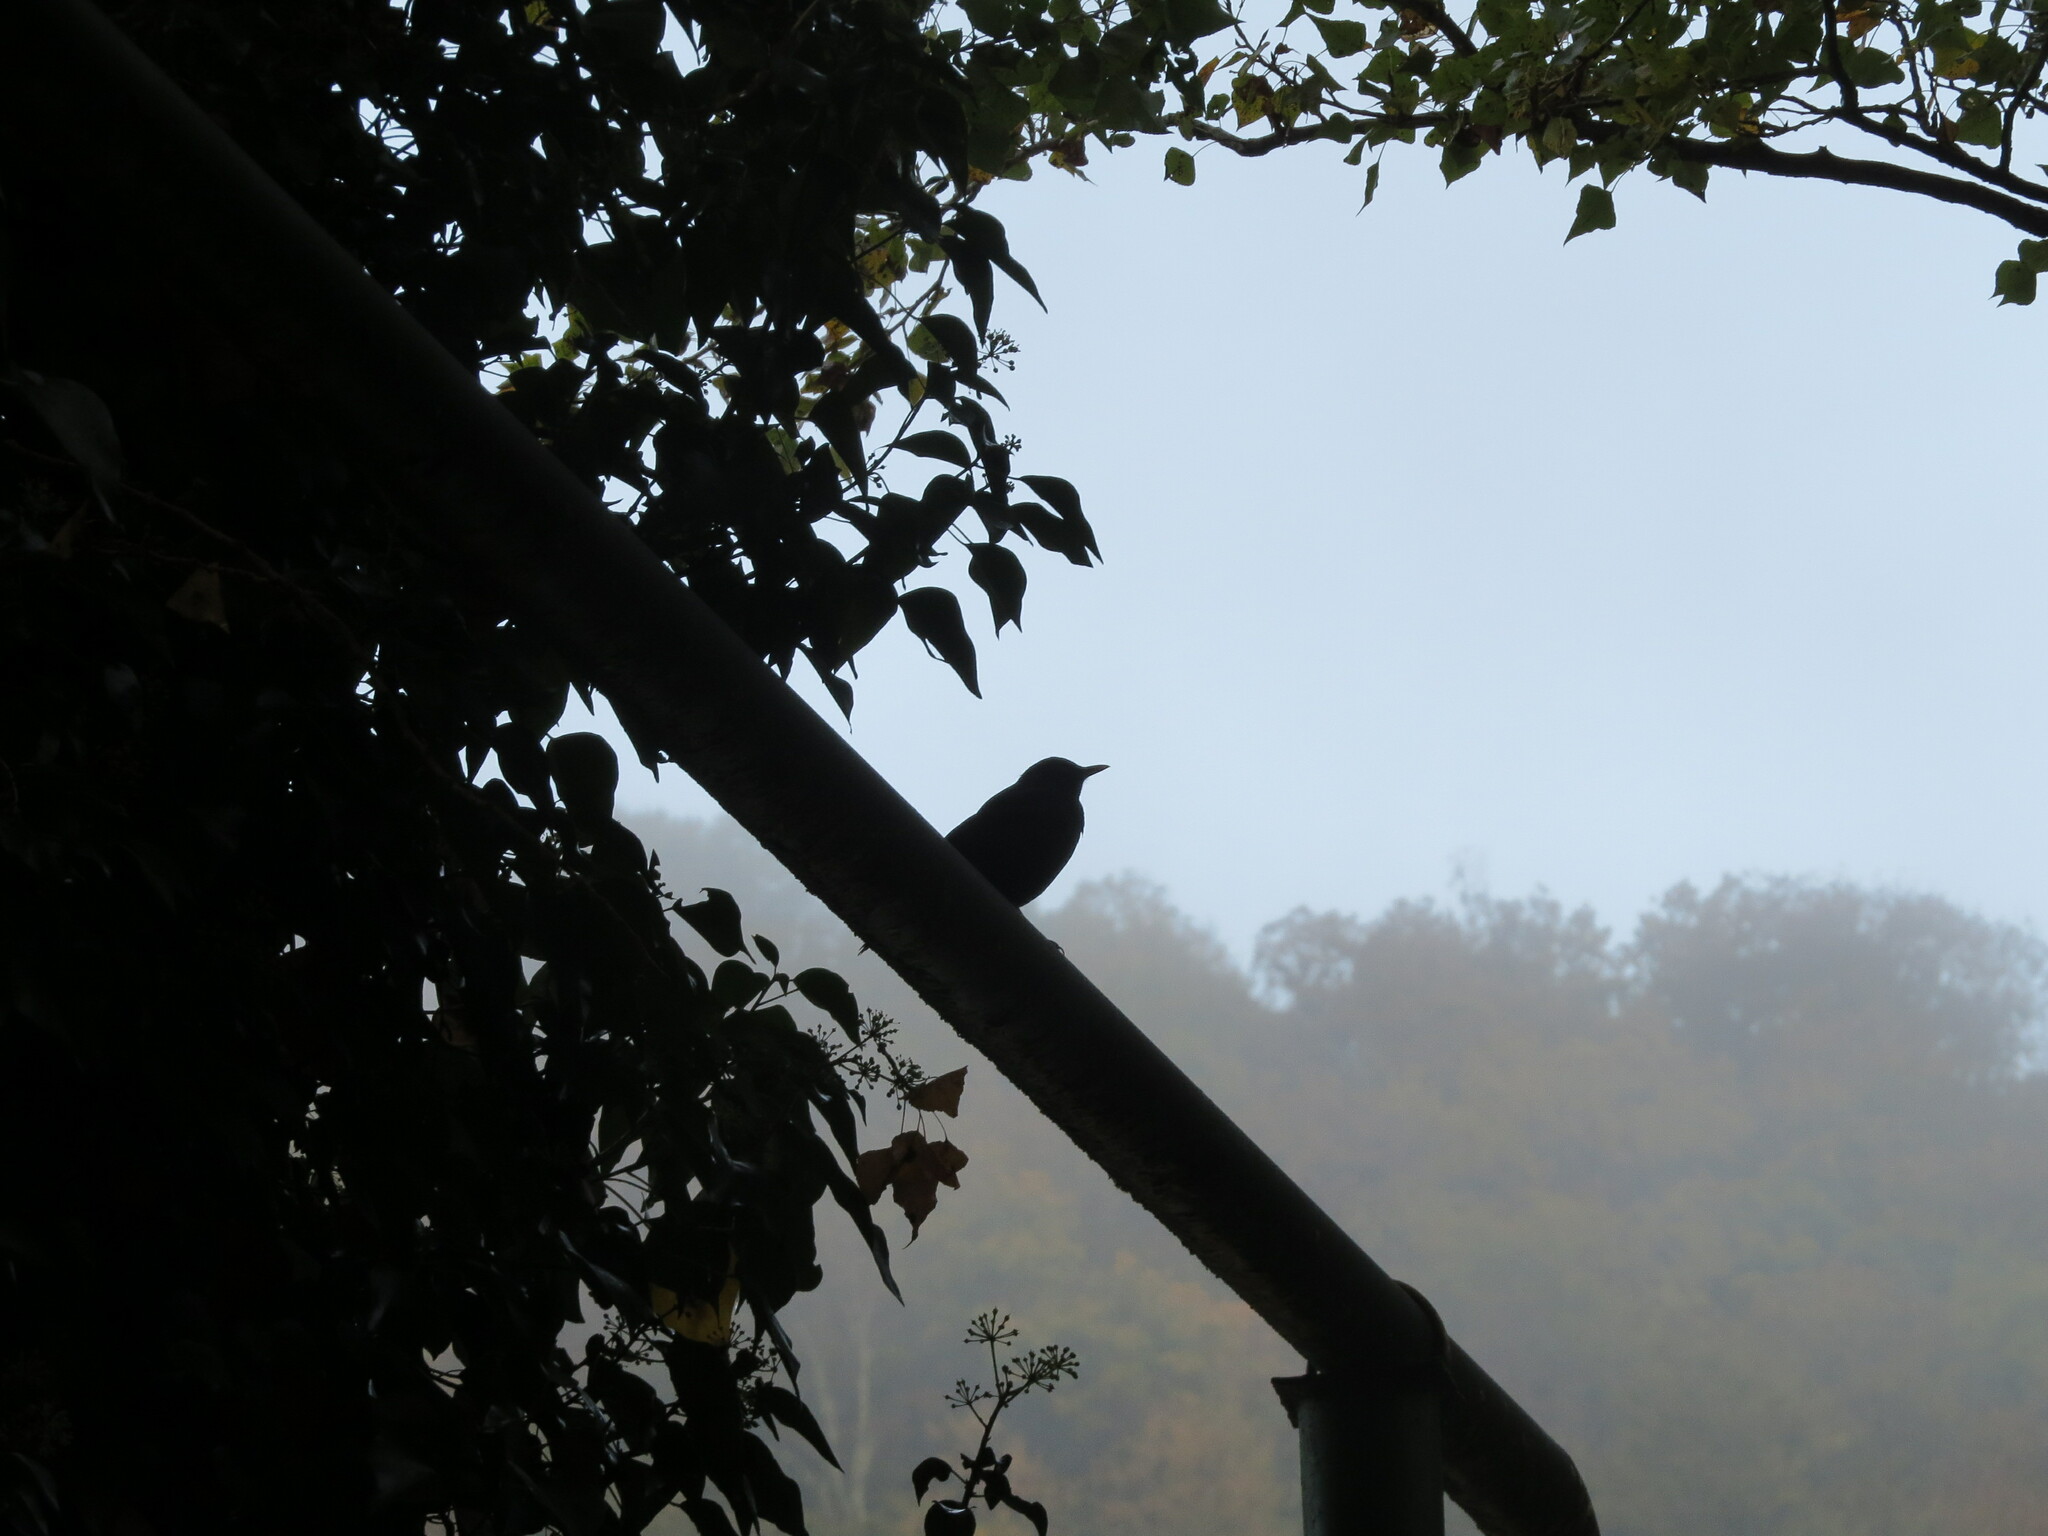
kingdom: Animalia
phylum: Chordata
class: Aves
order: Passeriformes
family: Turdidae
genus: Turdus
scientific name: Turdus merula
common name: Common blackbird
